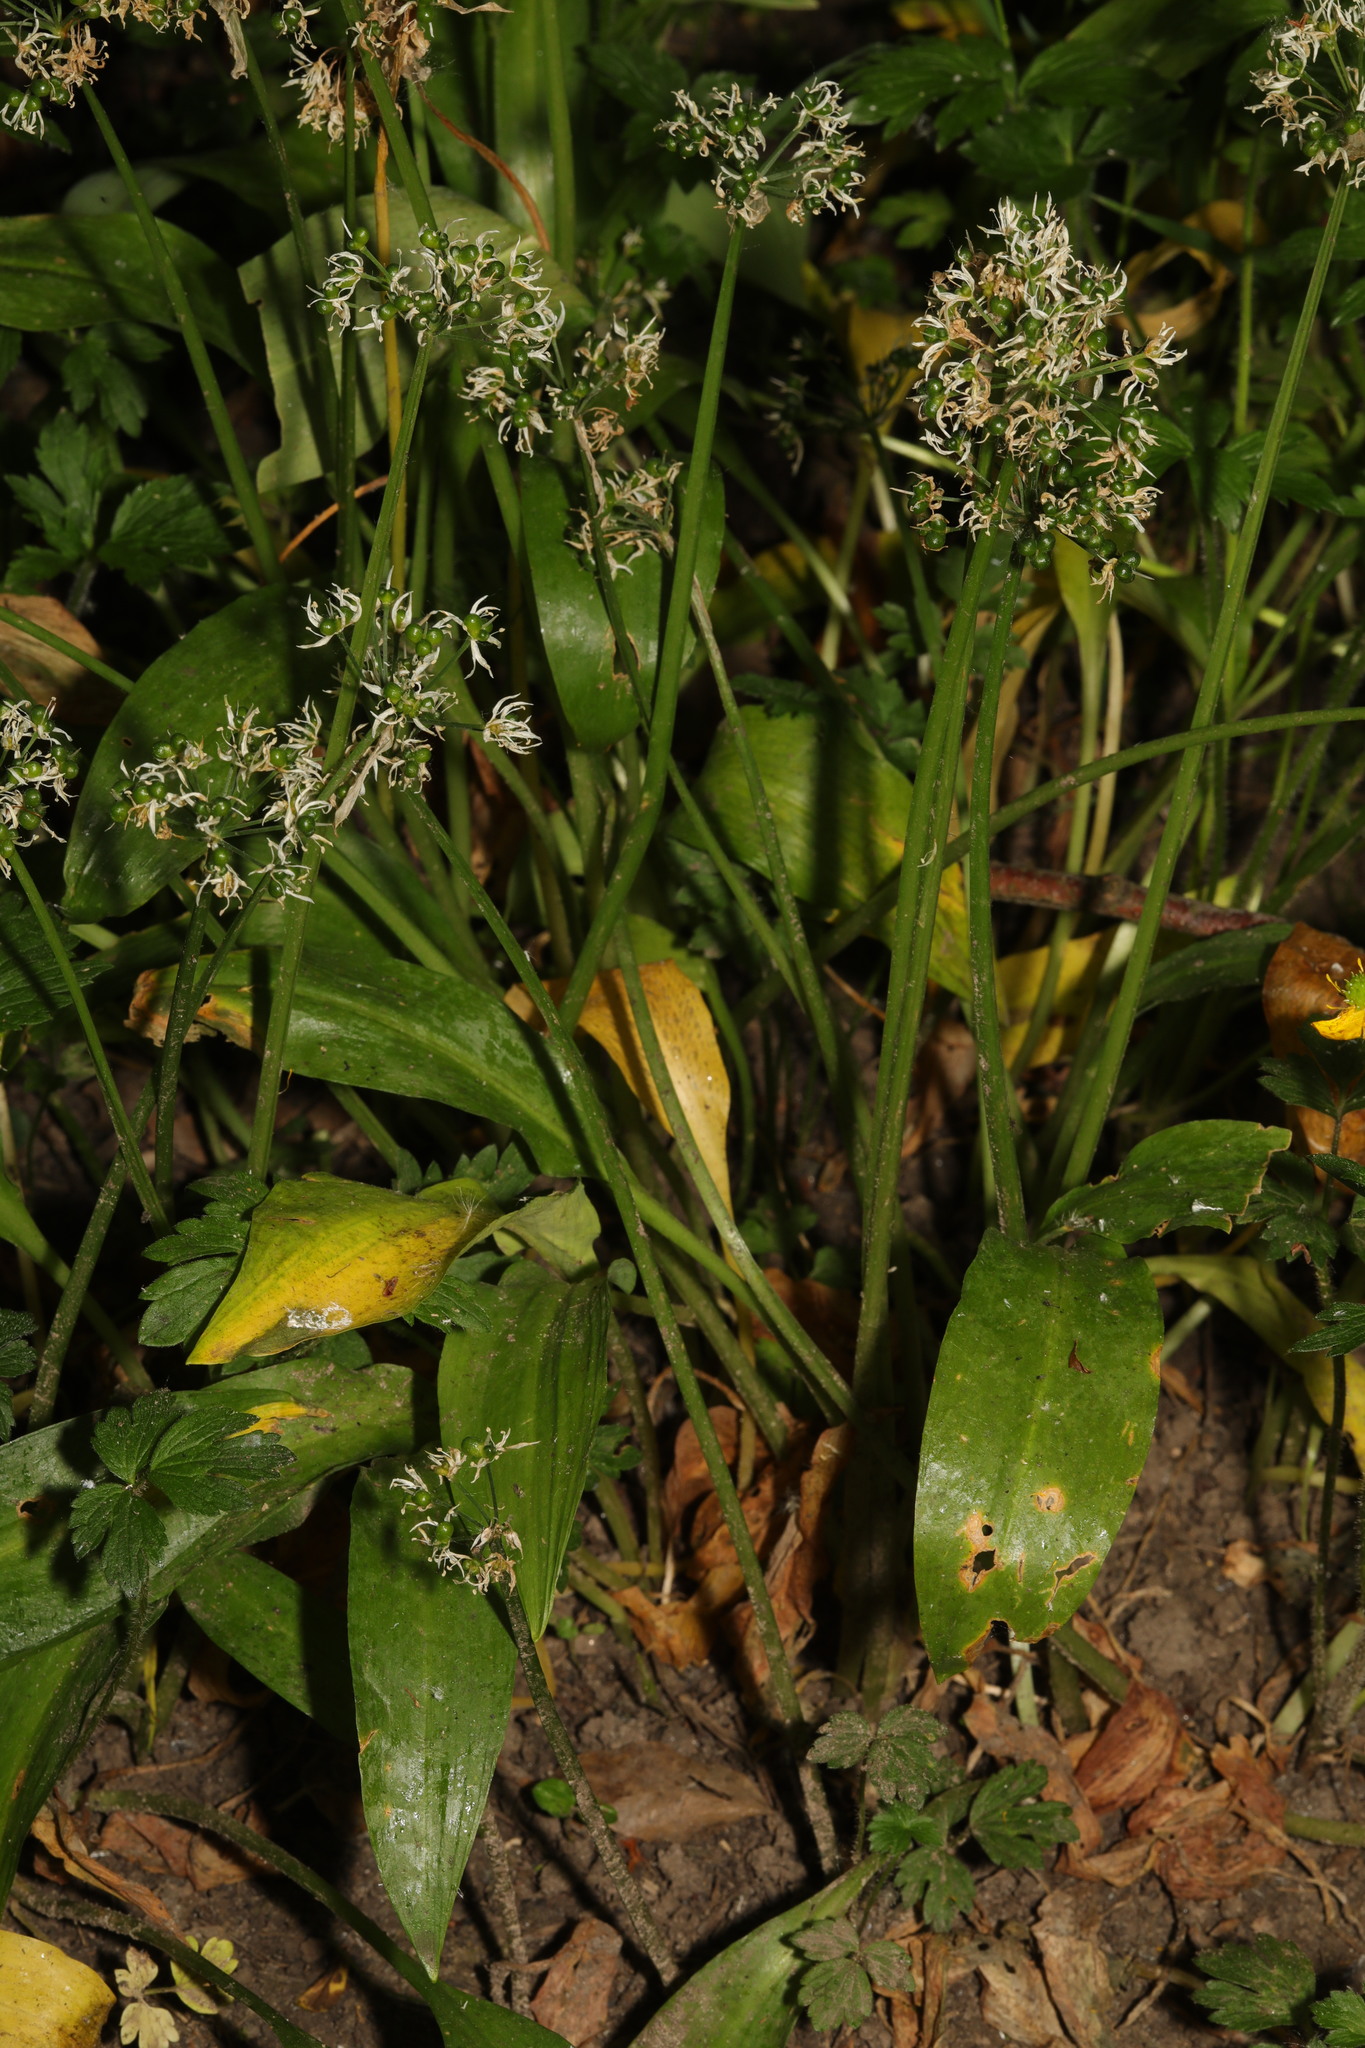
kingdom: Plantae
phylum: Tracheophyta
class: Liliopsida
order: Asparagales
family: Amaryllidaceae
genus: Allium
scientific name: Allium ursinum
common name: Ramsons
